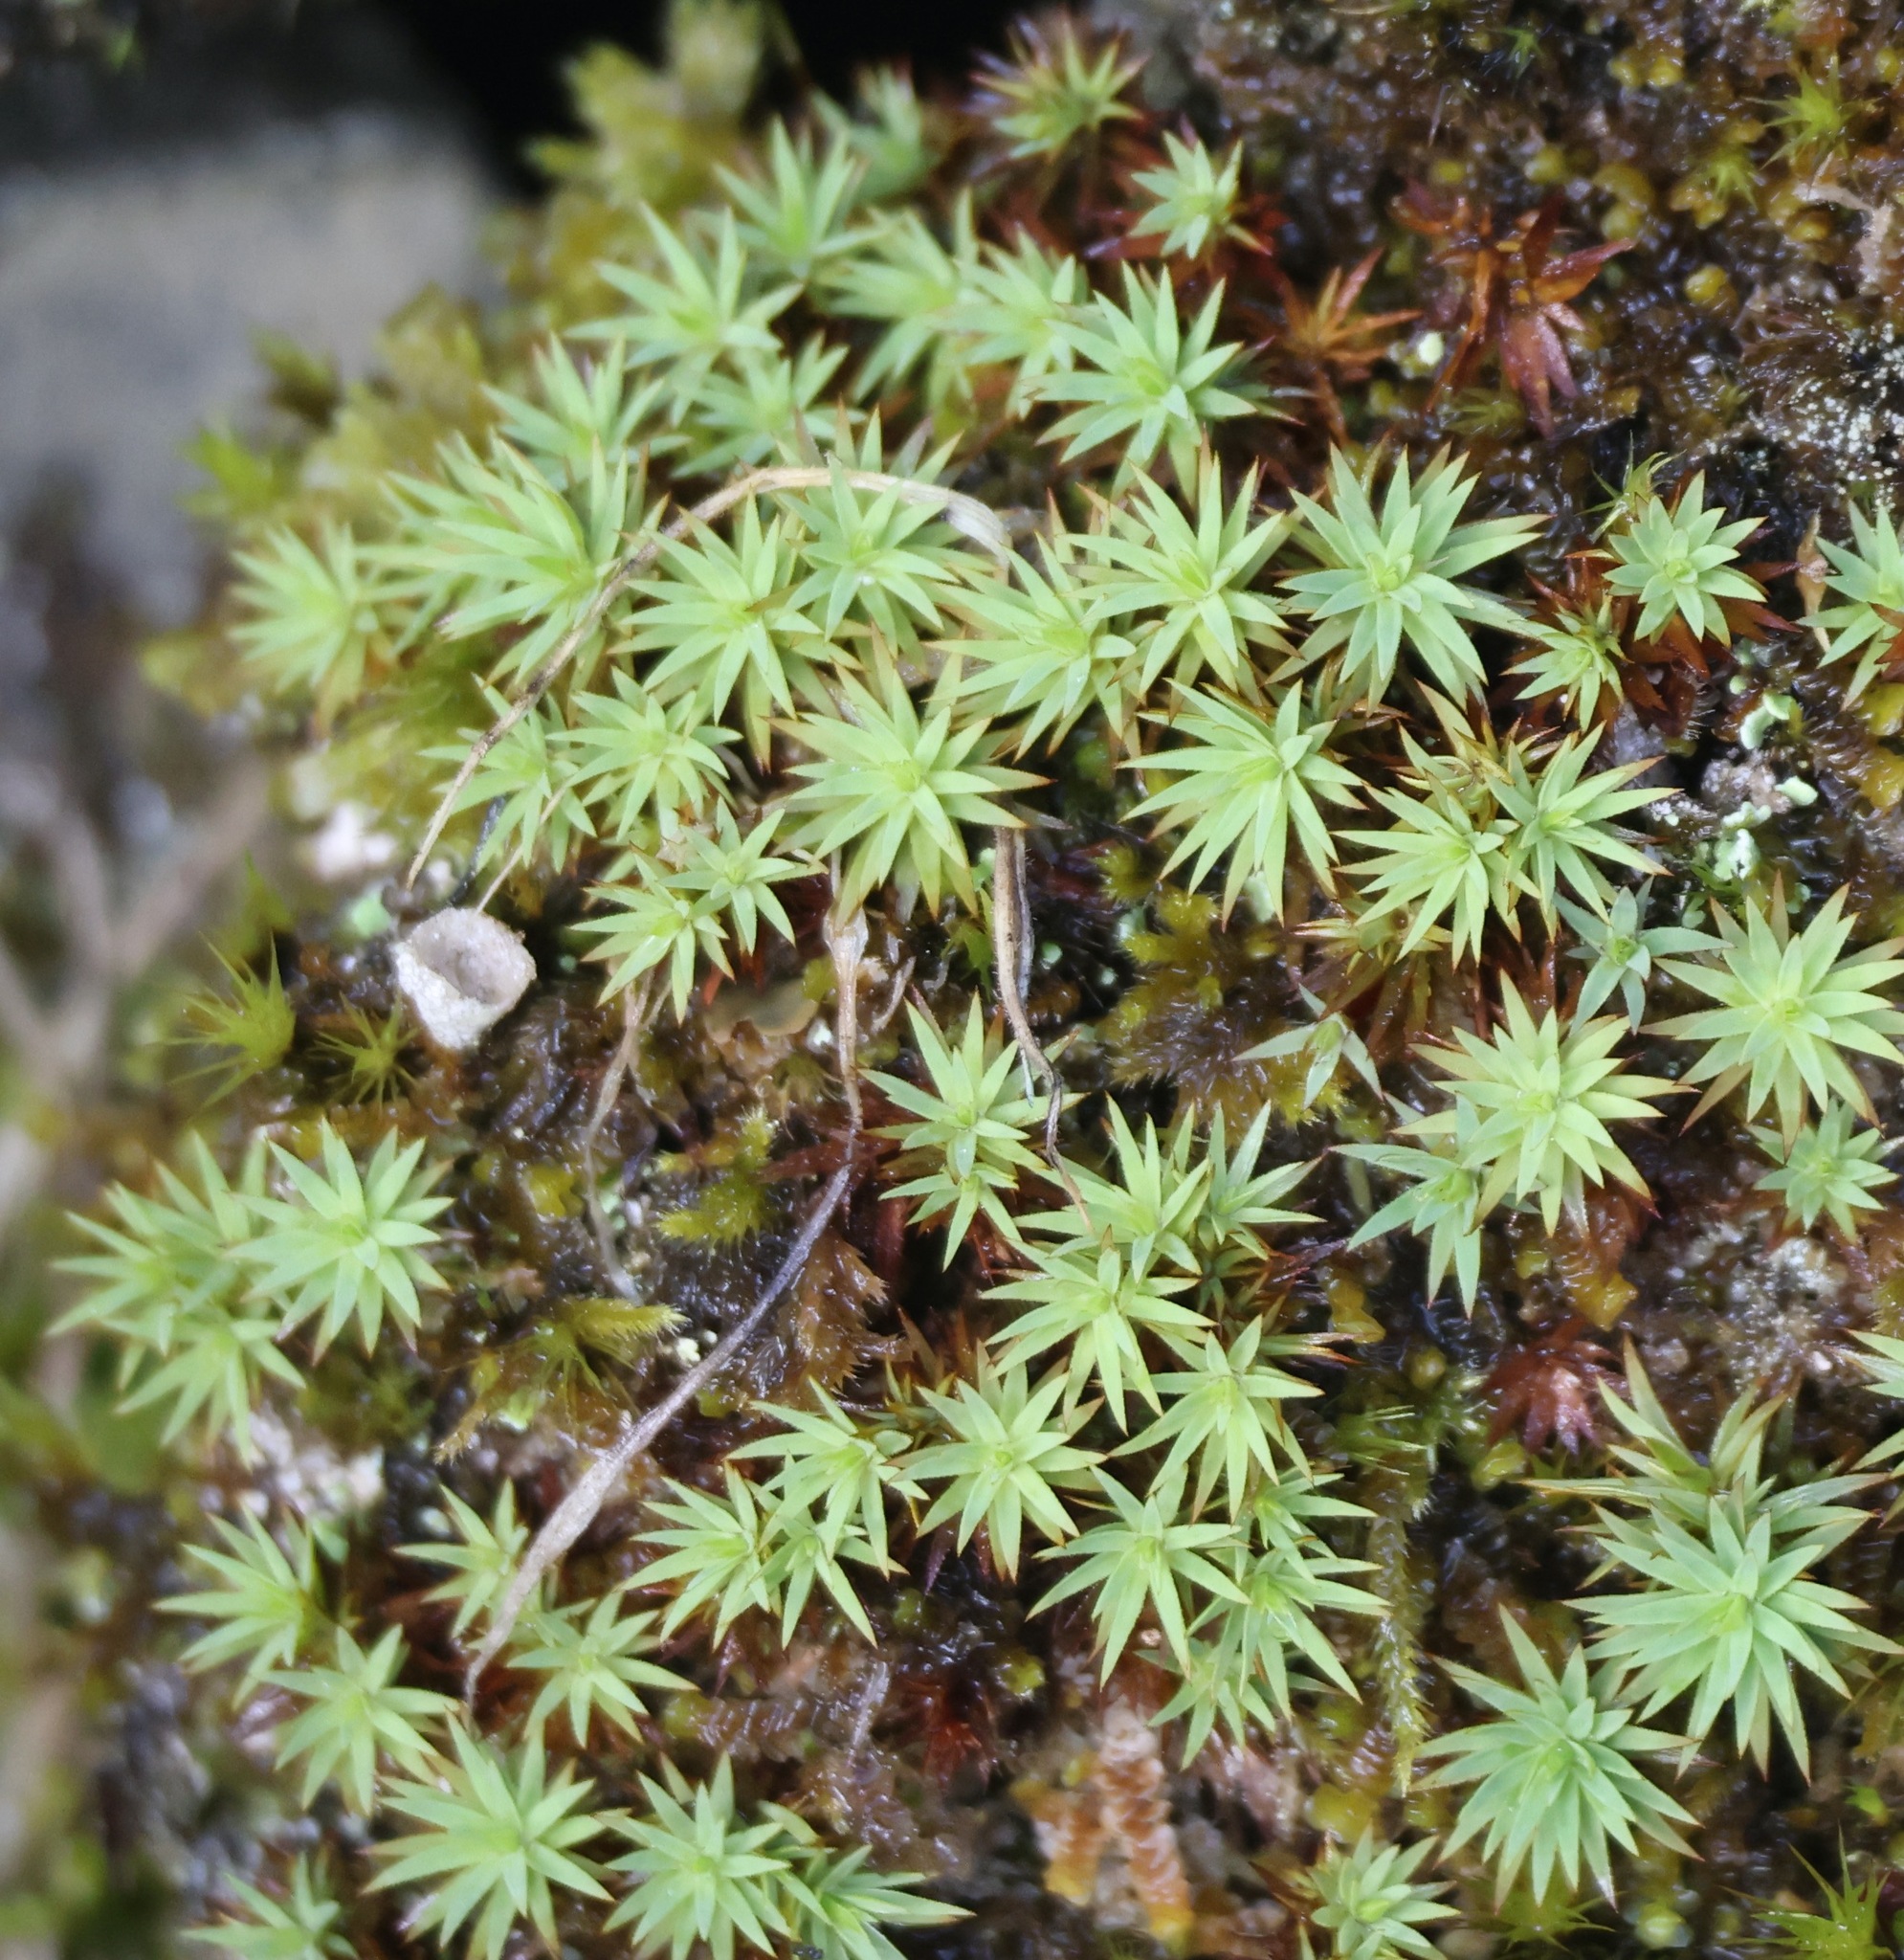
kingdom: Plantae
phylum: Bryophyta
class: Polytrichopsida
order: Polytrichales
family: Polytrichaceae
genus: Pogonatum
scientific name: Pogonatum urnigerum
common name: Urn hair moss
